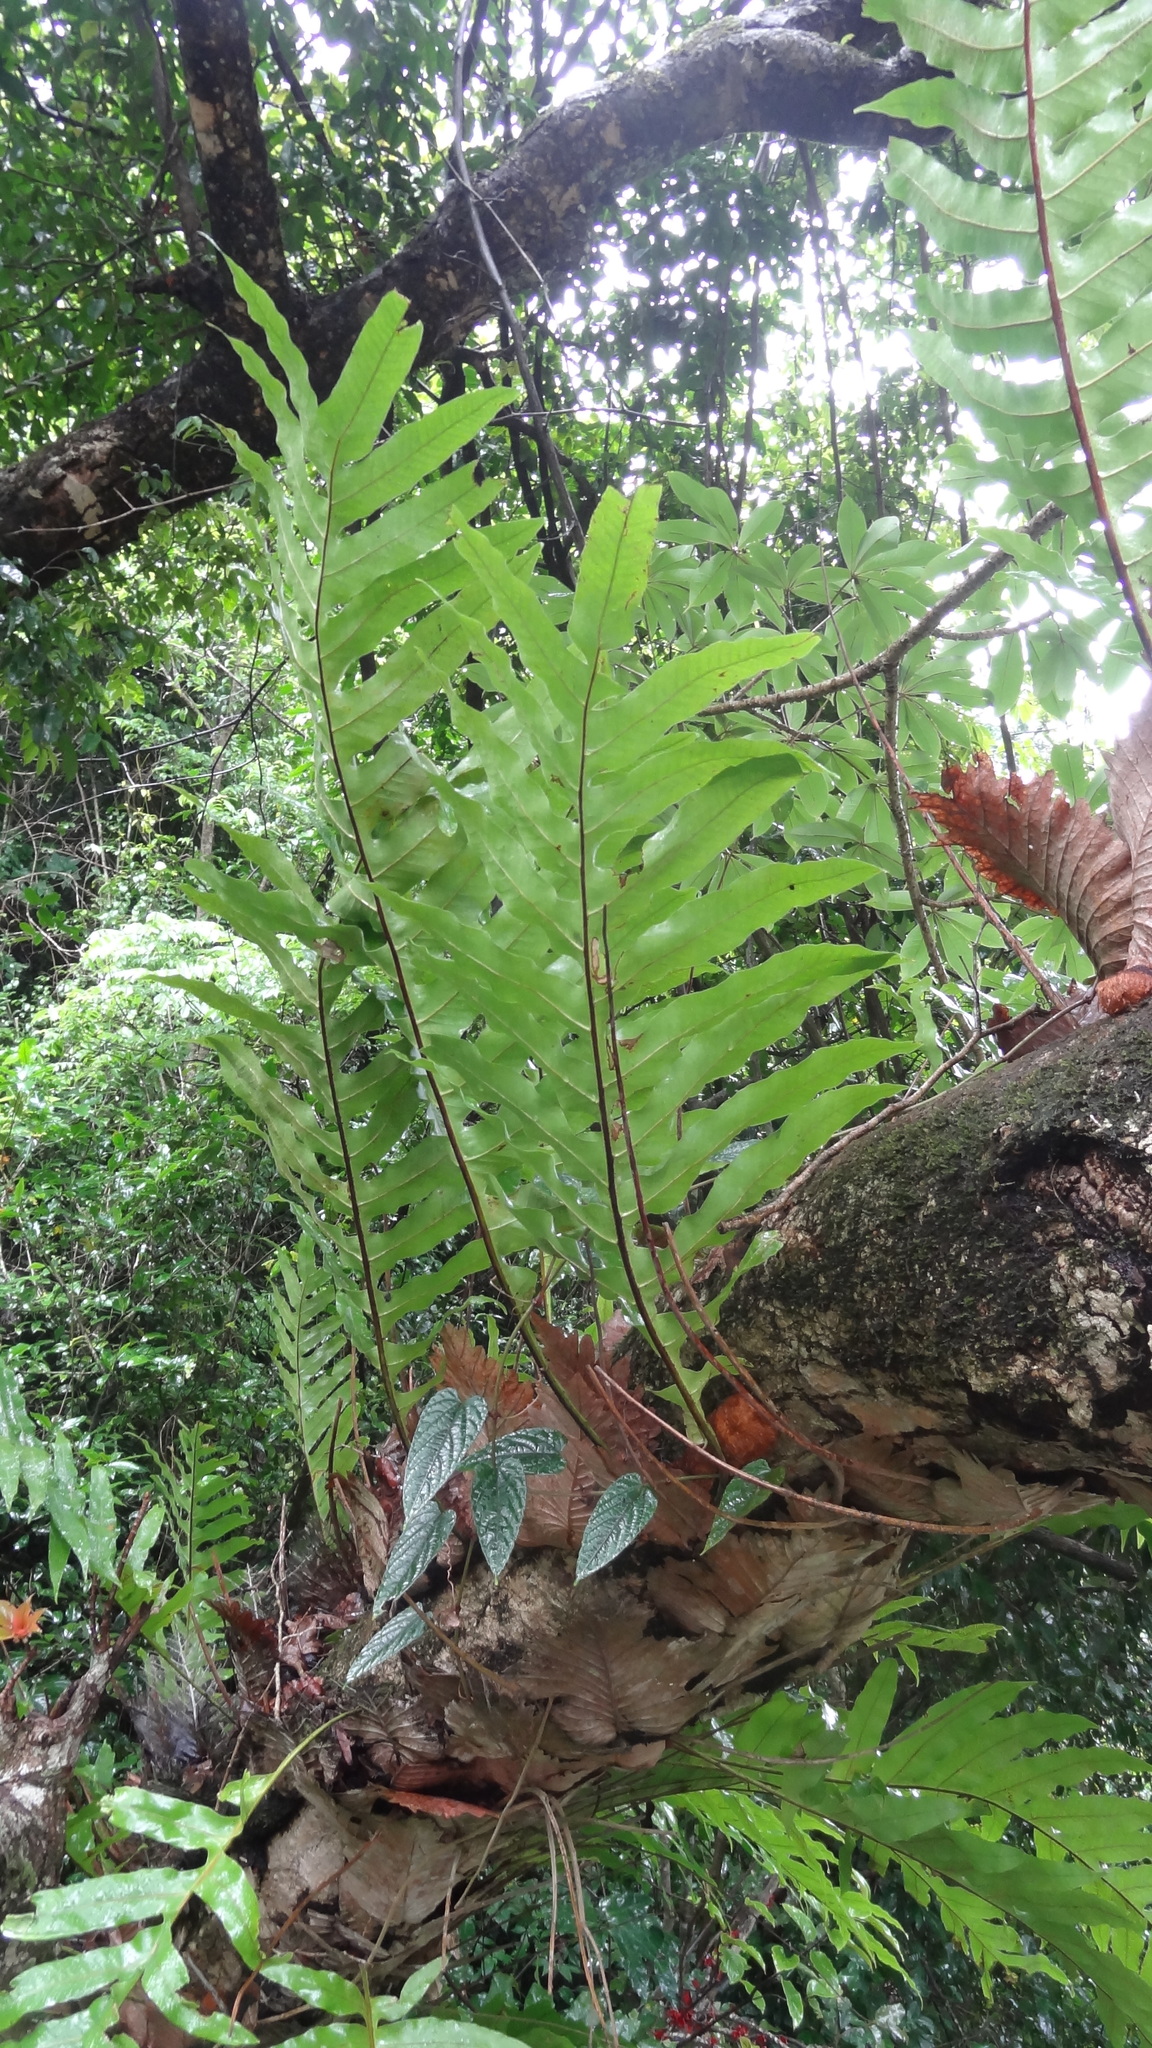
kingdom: Plantae
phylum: Tracheophyta
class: Polypodiopsida
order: Polypodiales
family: Polypodiaceae
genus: Drynaria
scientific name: Drynaria quercifolia
